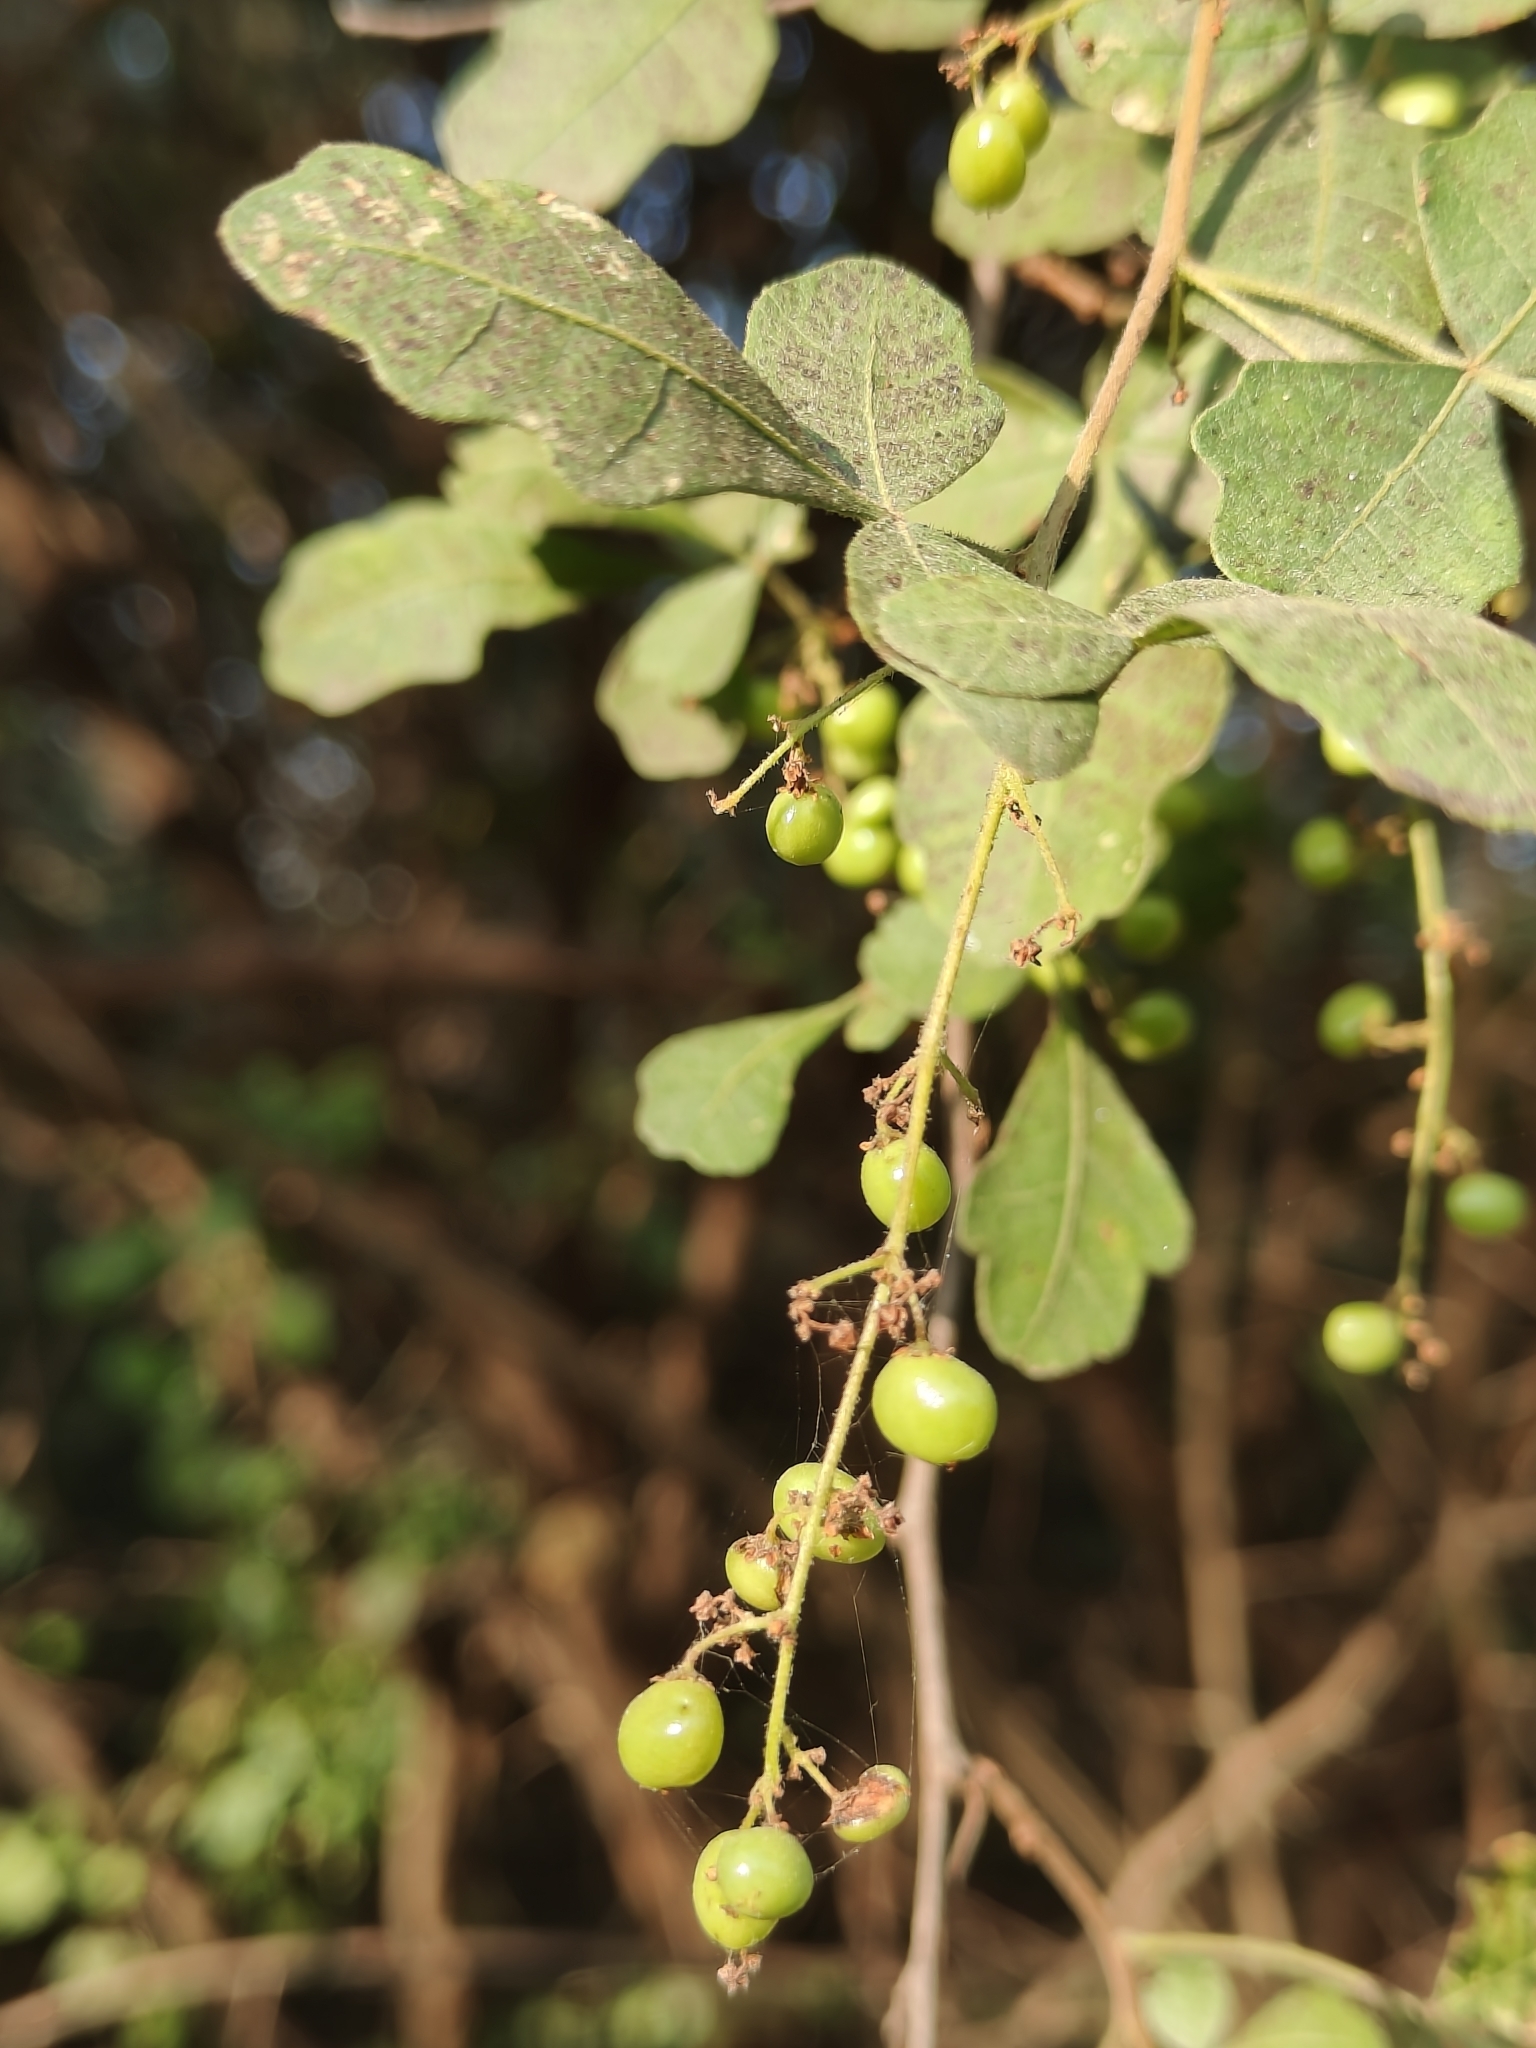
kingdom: Plantae
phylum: Tracheophyta
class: Magnoliopsida
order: Sapindales
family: Anacardiaceae
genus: Searsia
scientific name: Searsia mysorensis
